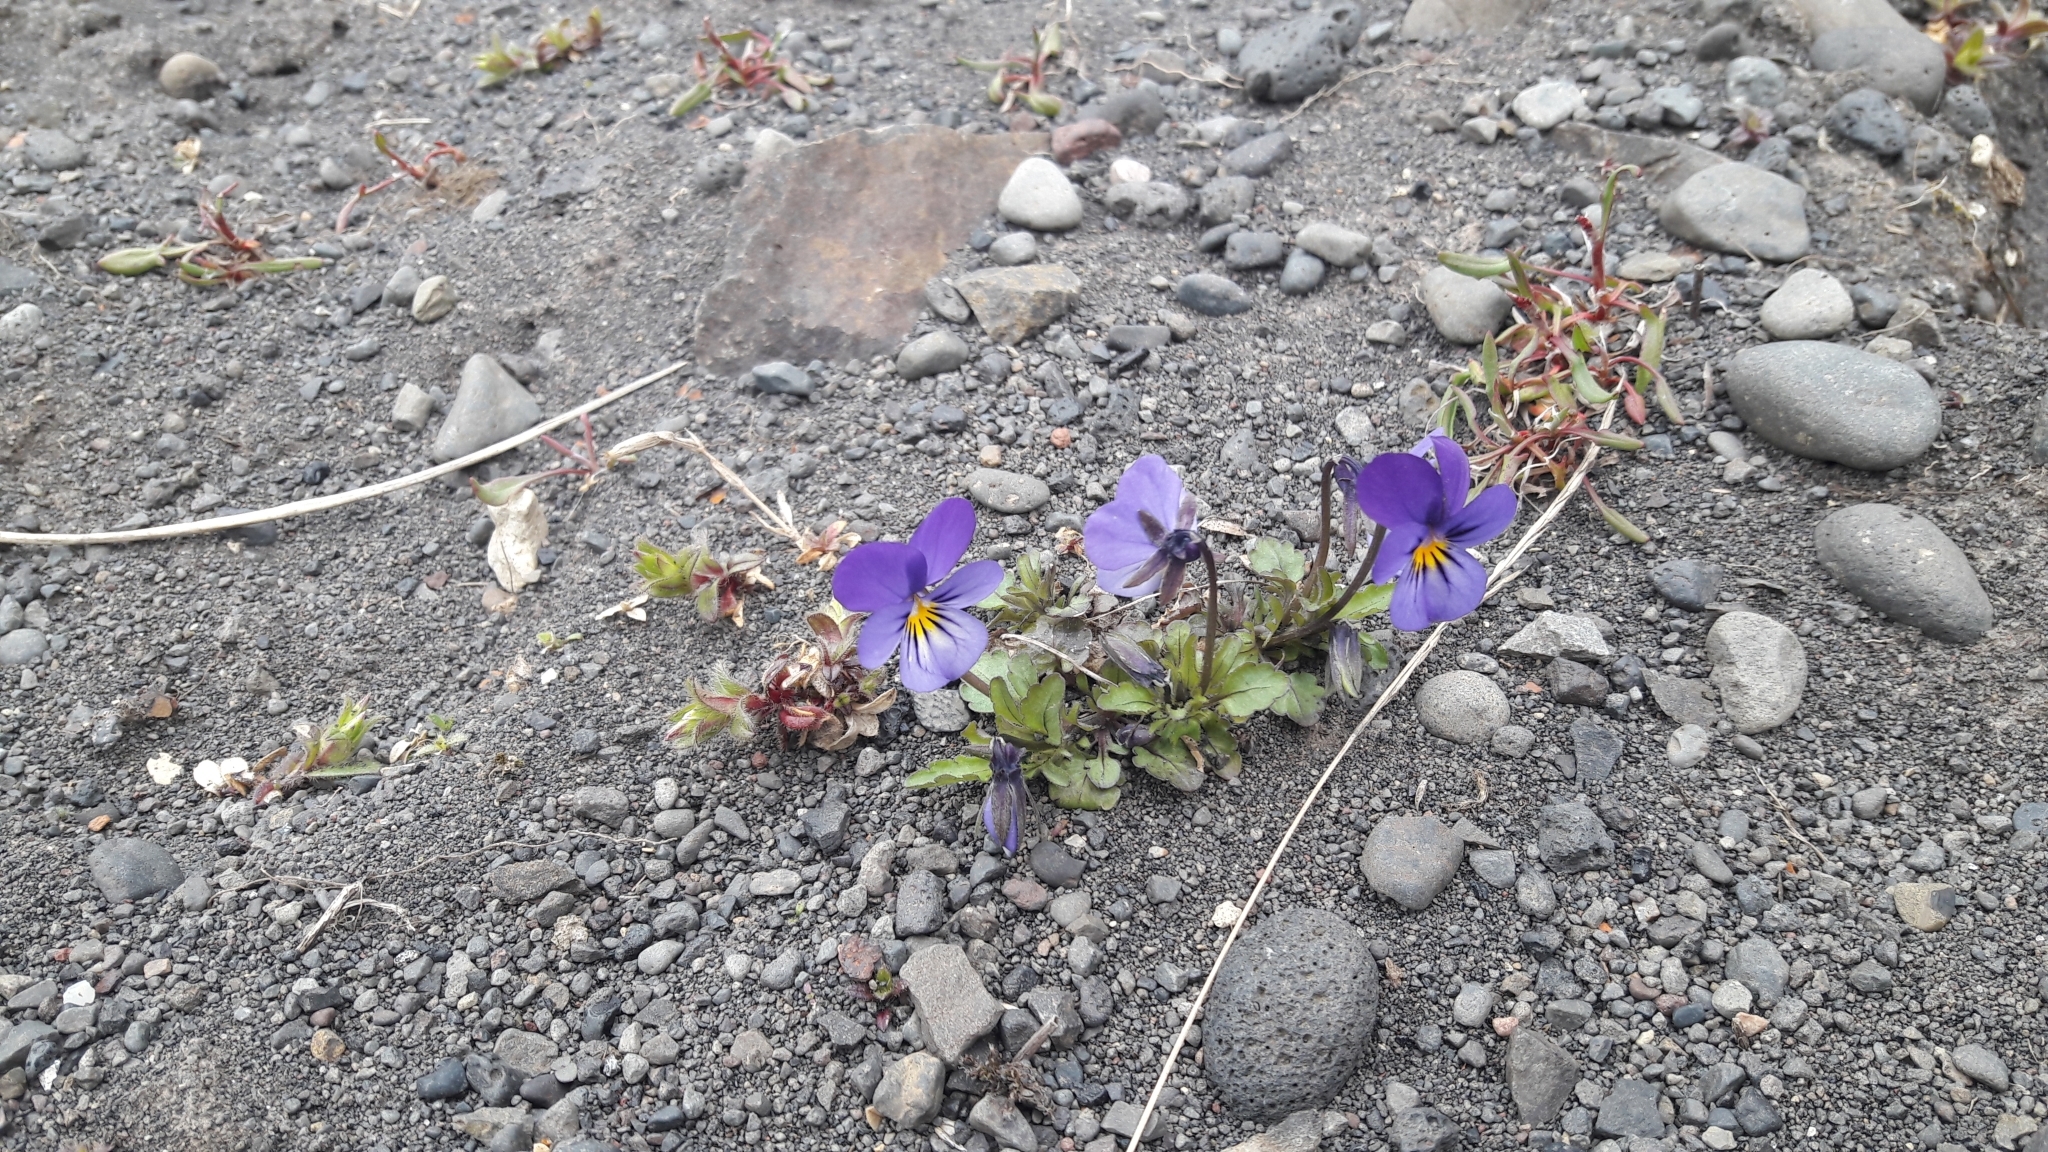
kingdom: Plantae
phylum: Tracheophyta
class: Magnoliopsida
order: Malpighiales
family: Violaceae
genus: Viola
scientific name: Viola tricolor
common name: Pansy
